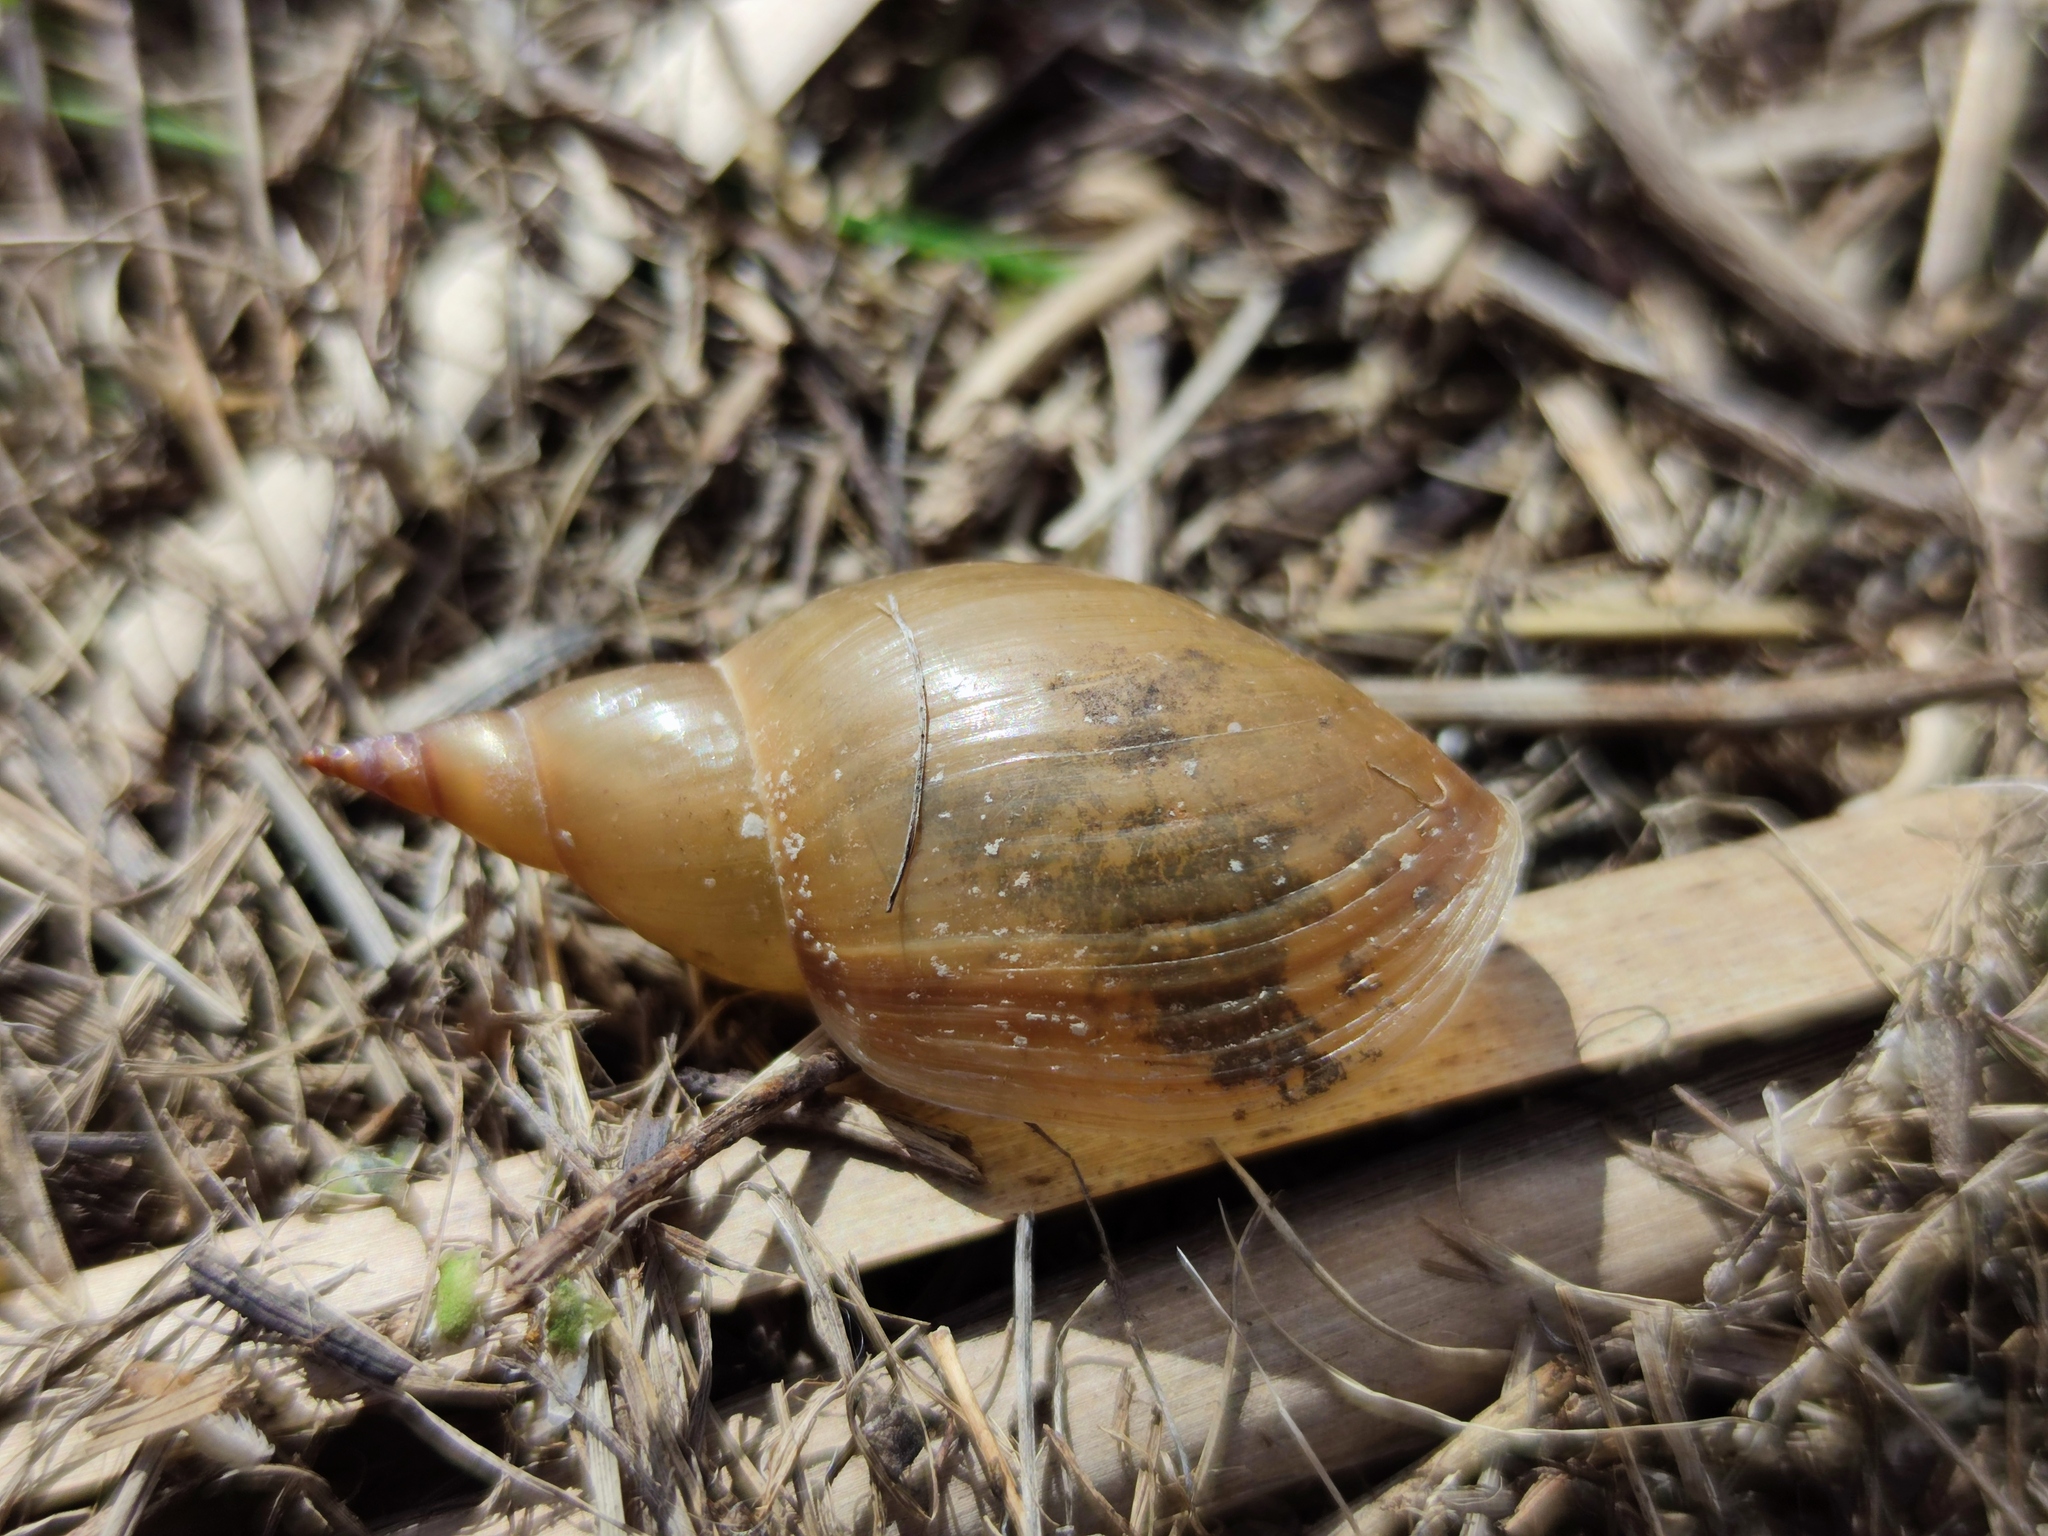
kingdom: Animalia
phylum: Mollusca
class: Gastropoda
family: Lymnaeidae
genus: Lymnaea
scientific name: Lymnaea stagnalis
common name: Great pond snail
